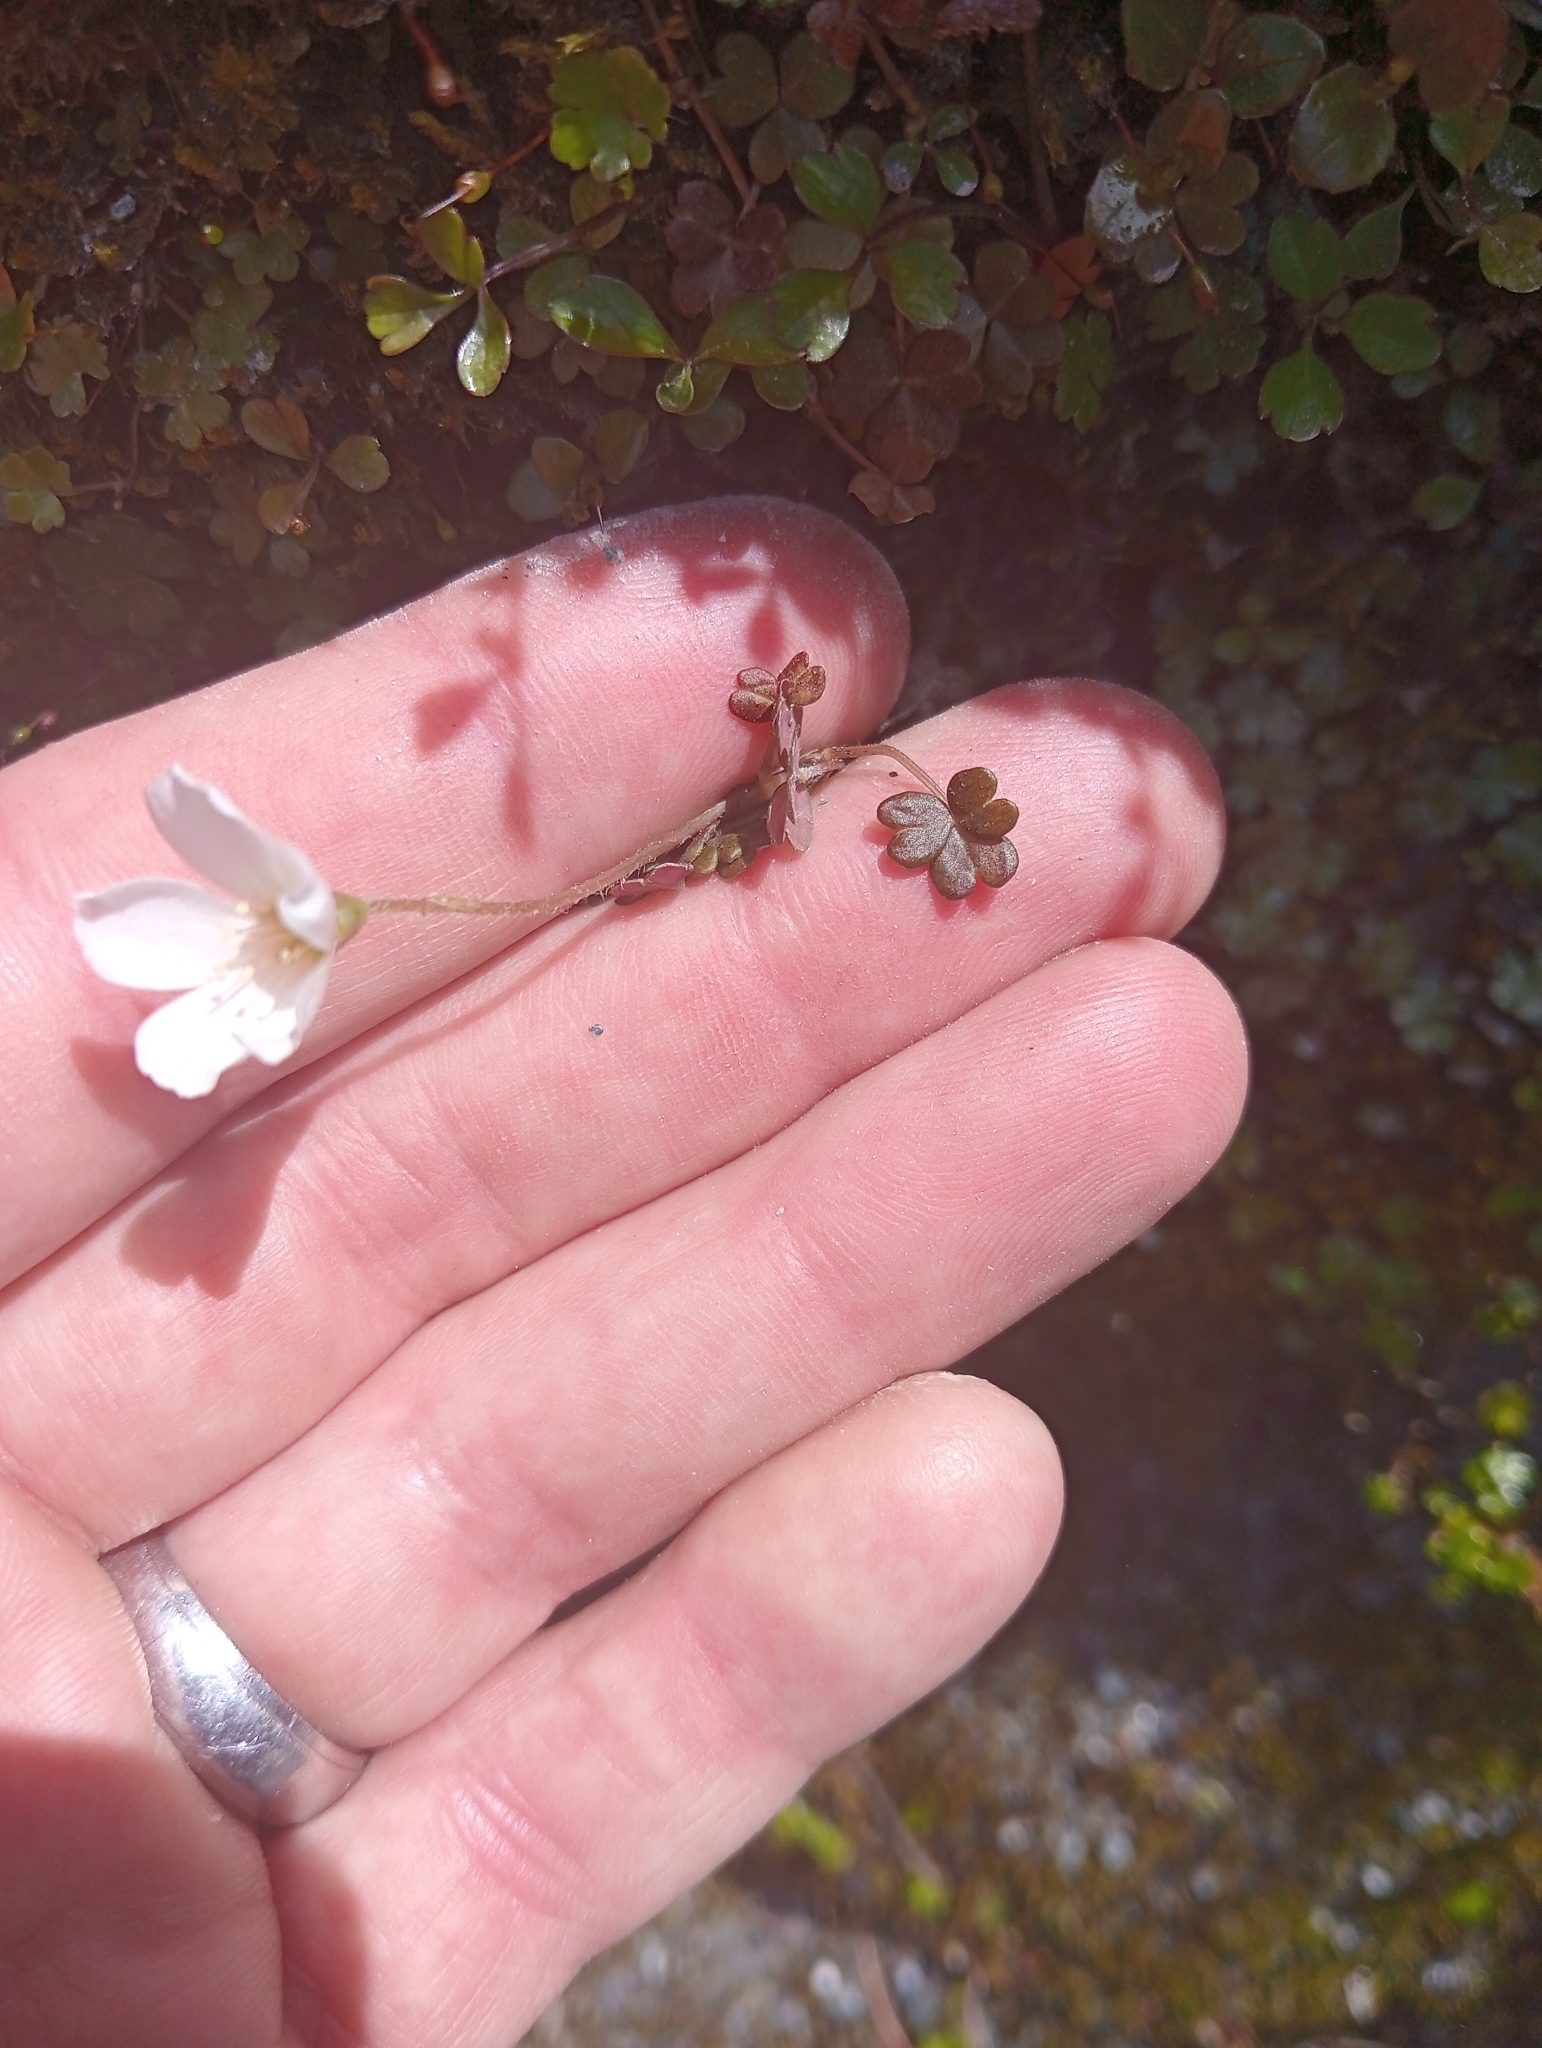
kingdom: Plantae
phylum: Tracheophyta
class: Magnoliopsida
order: Oxalidales
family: Oxalidaceae
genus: Oxalis
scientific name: Oxalis magellanica
